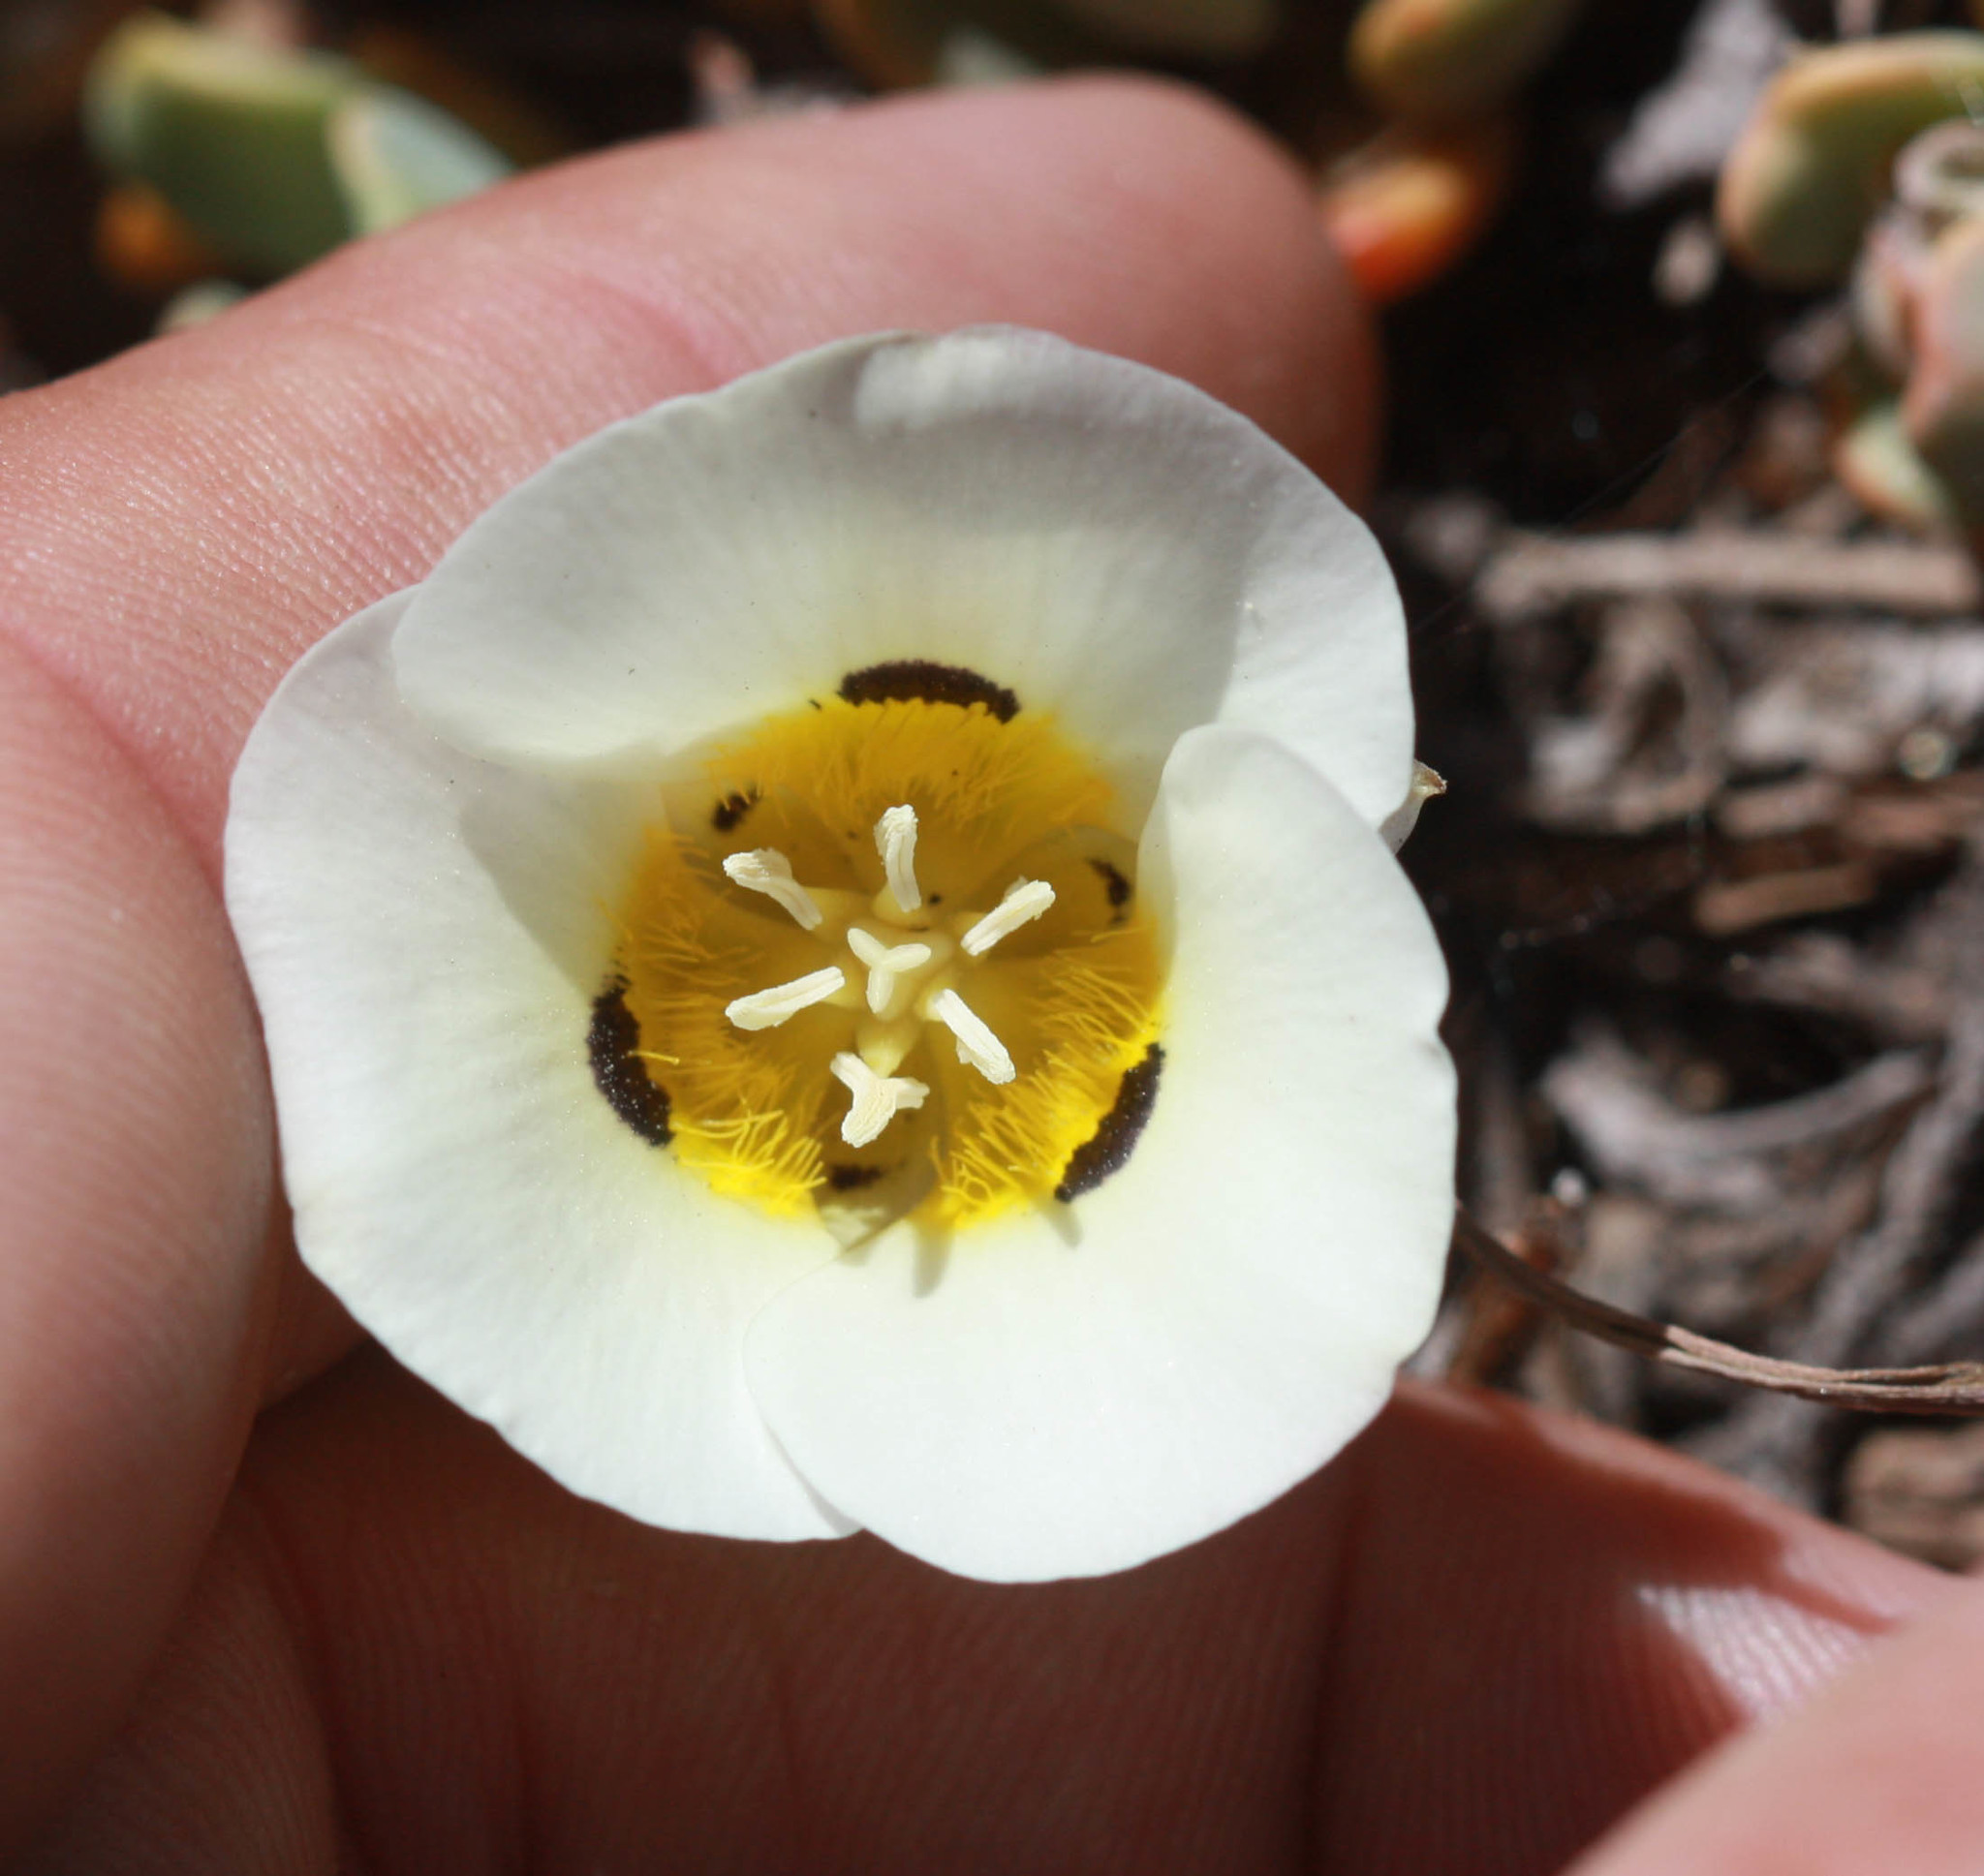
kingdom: Plantae
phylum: Tracheophyta
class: Liliopsida
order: Liliales
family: Liliaceae
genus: Calochortus
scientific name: Calochortus leichtlinii
